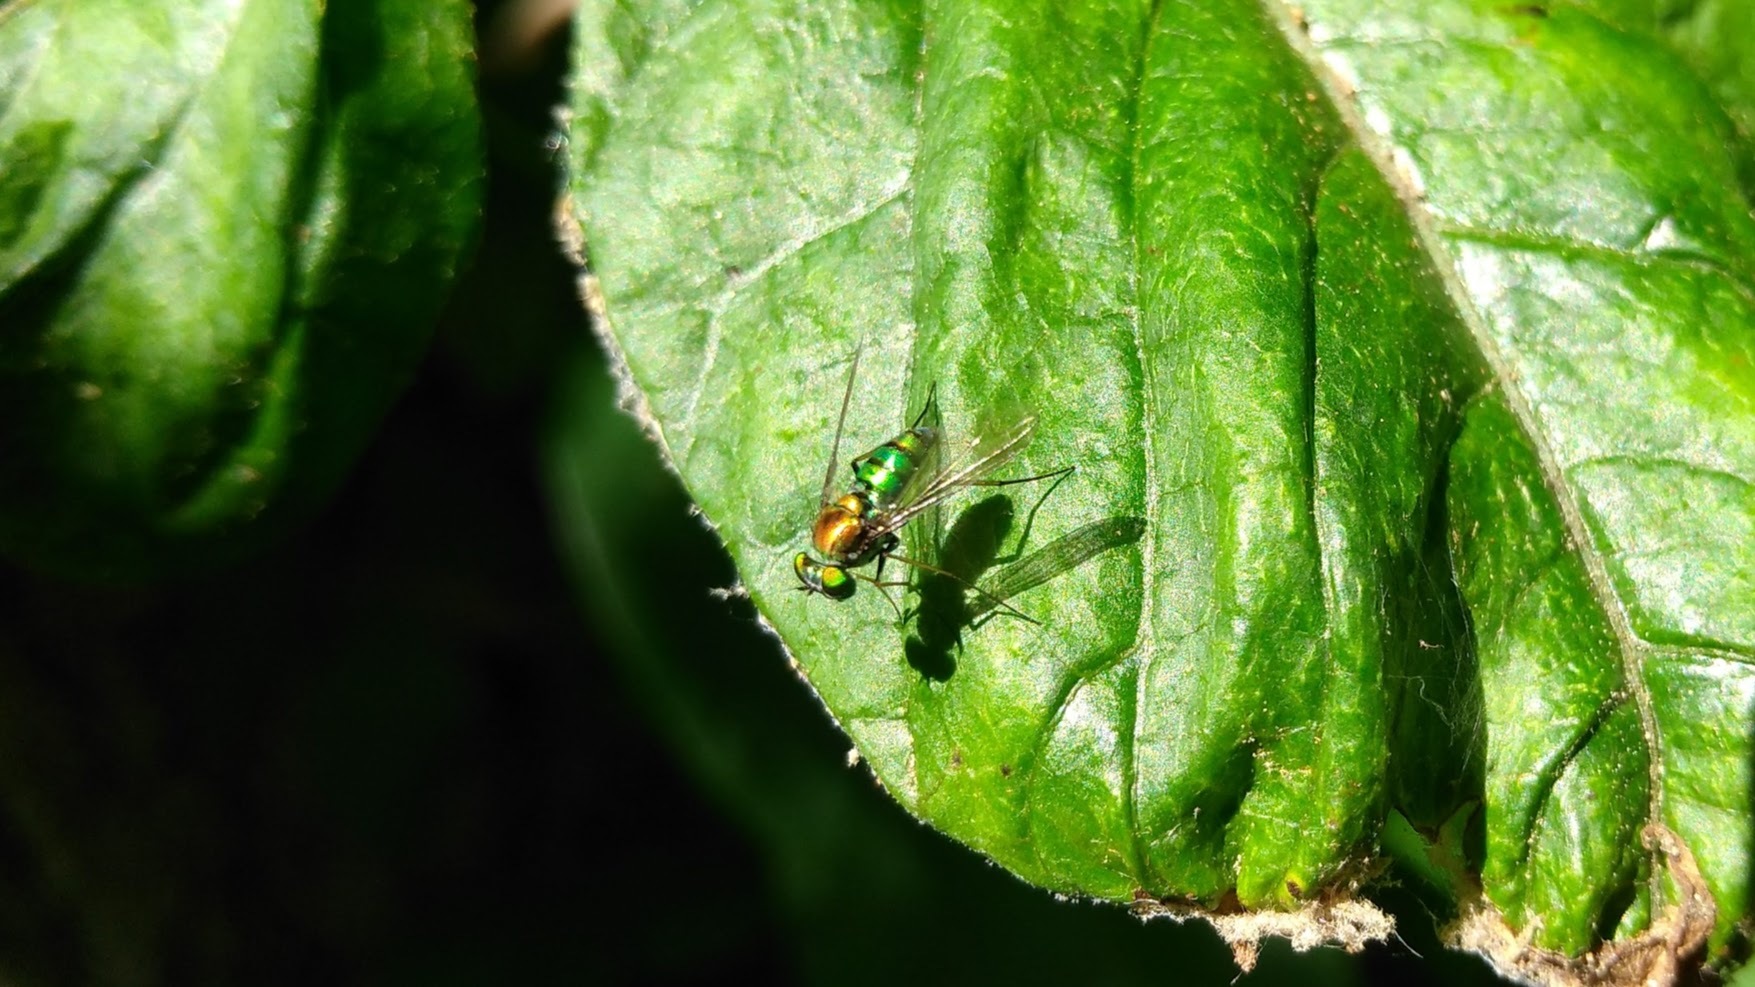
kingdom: Animalia
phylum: Arthropoda
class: Insecta
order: Diptera
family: Dolichopodidae
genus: Condylostylus
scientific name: Condylostylus
